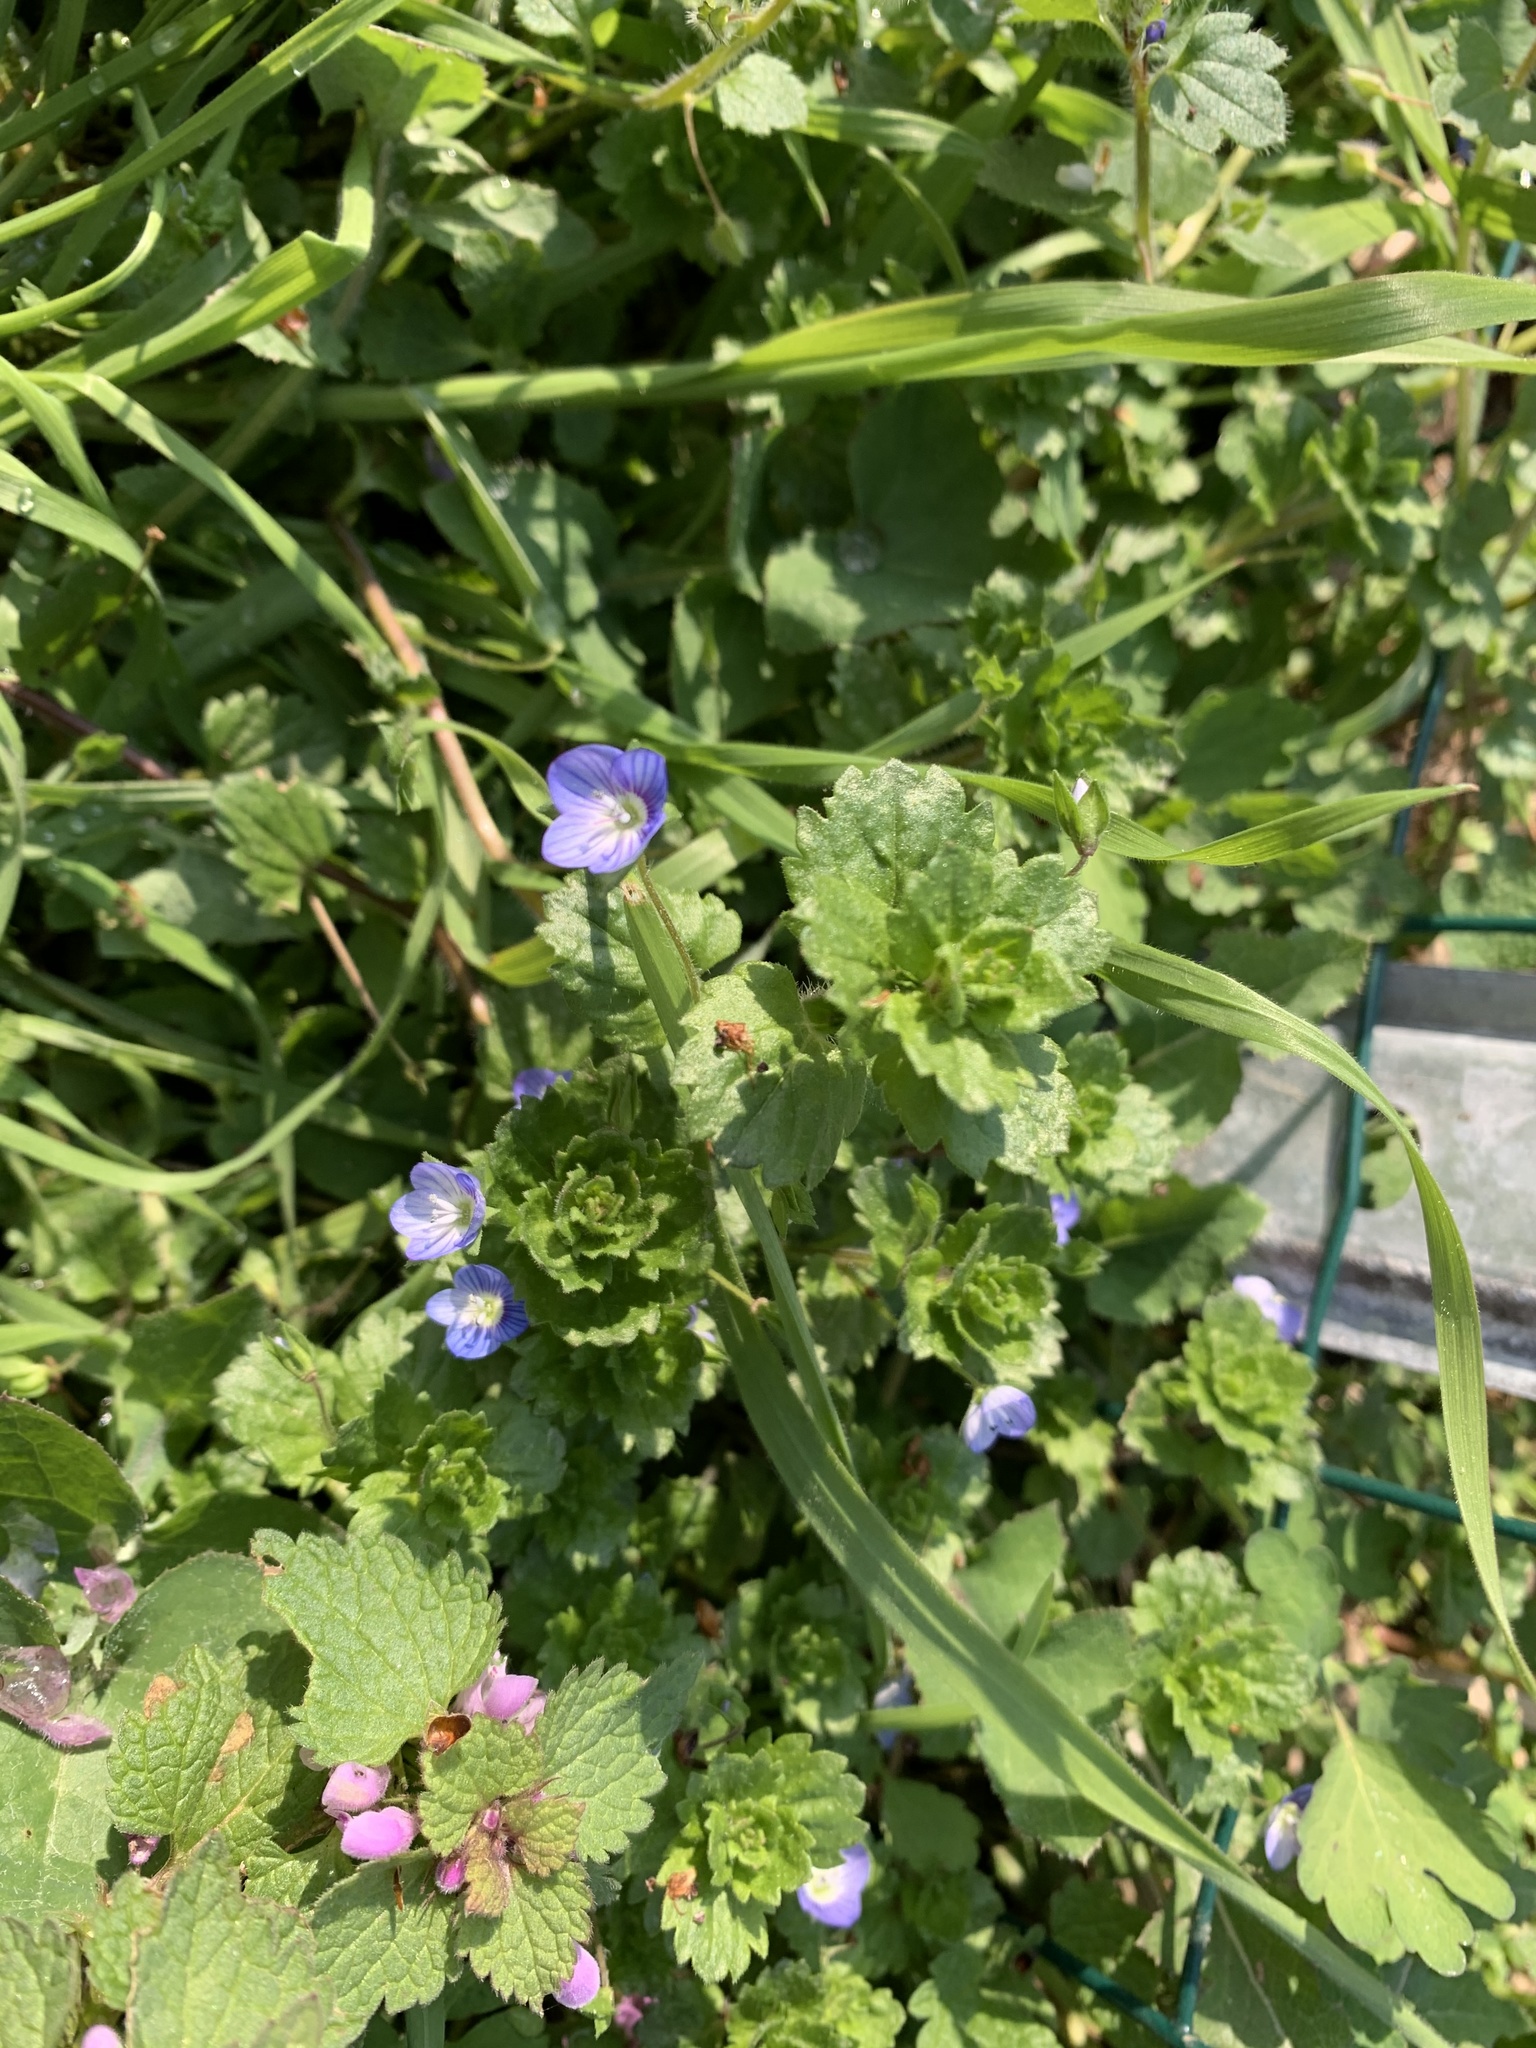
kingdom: Plantae
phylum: Tracheophyta
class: Magnoliopsida
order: Lamiales
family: Plantaginaceae
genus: Veronica
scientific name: Veronica persica
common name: Common field-speedwell
